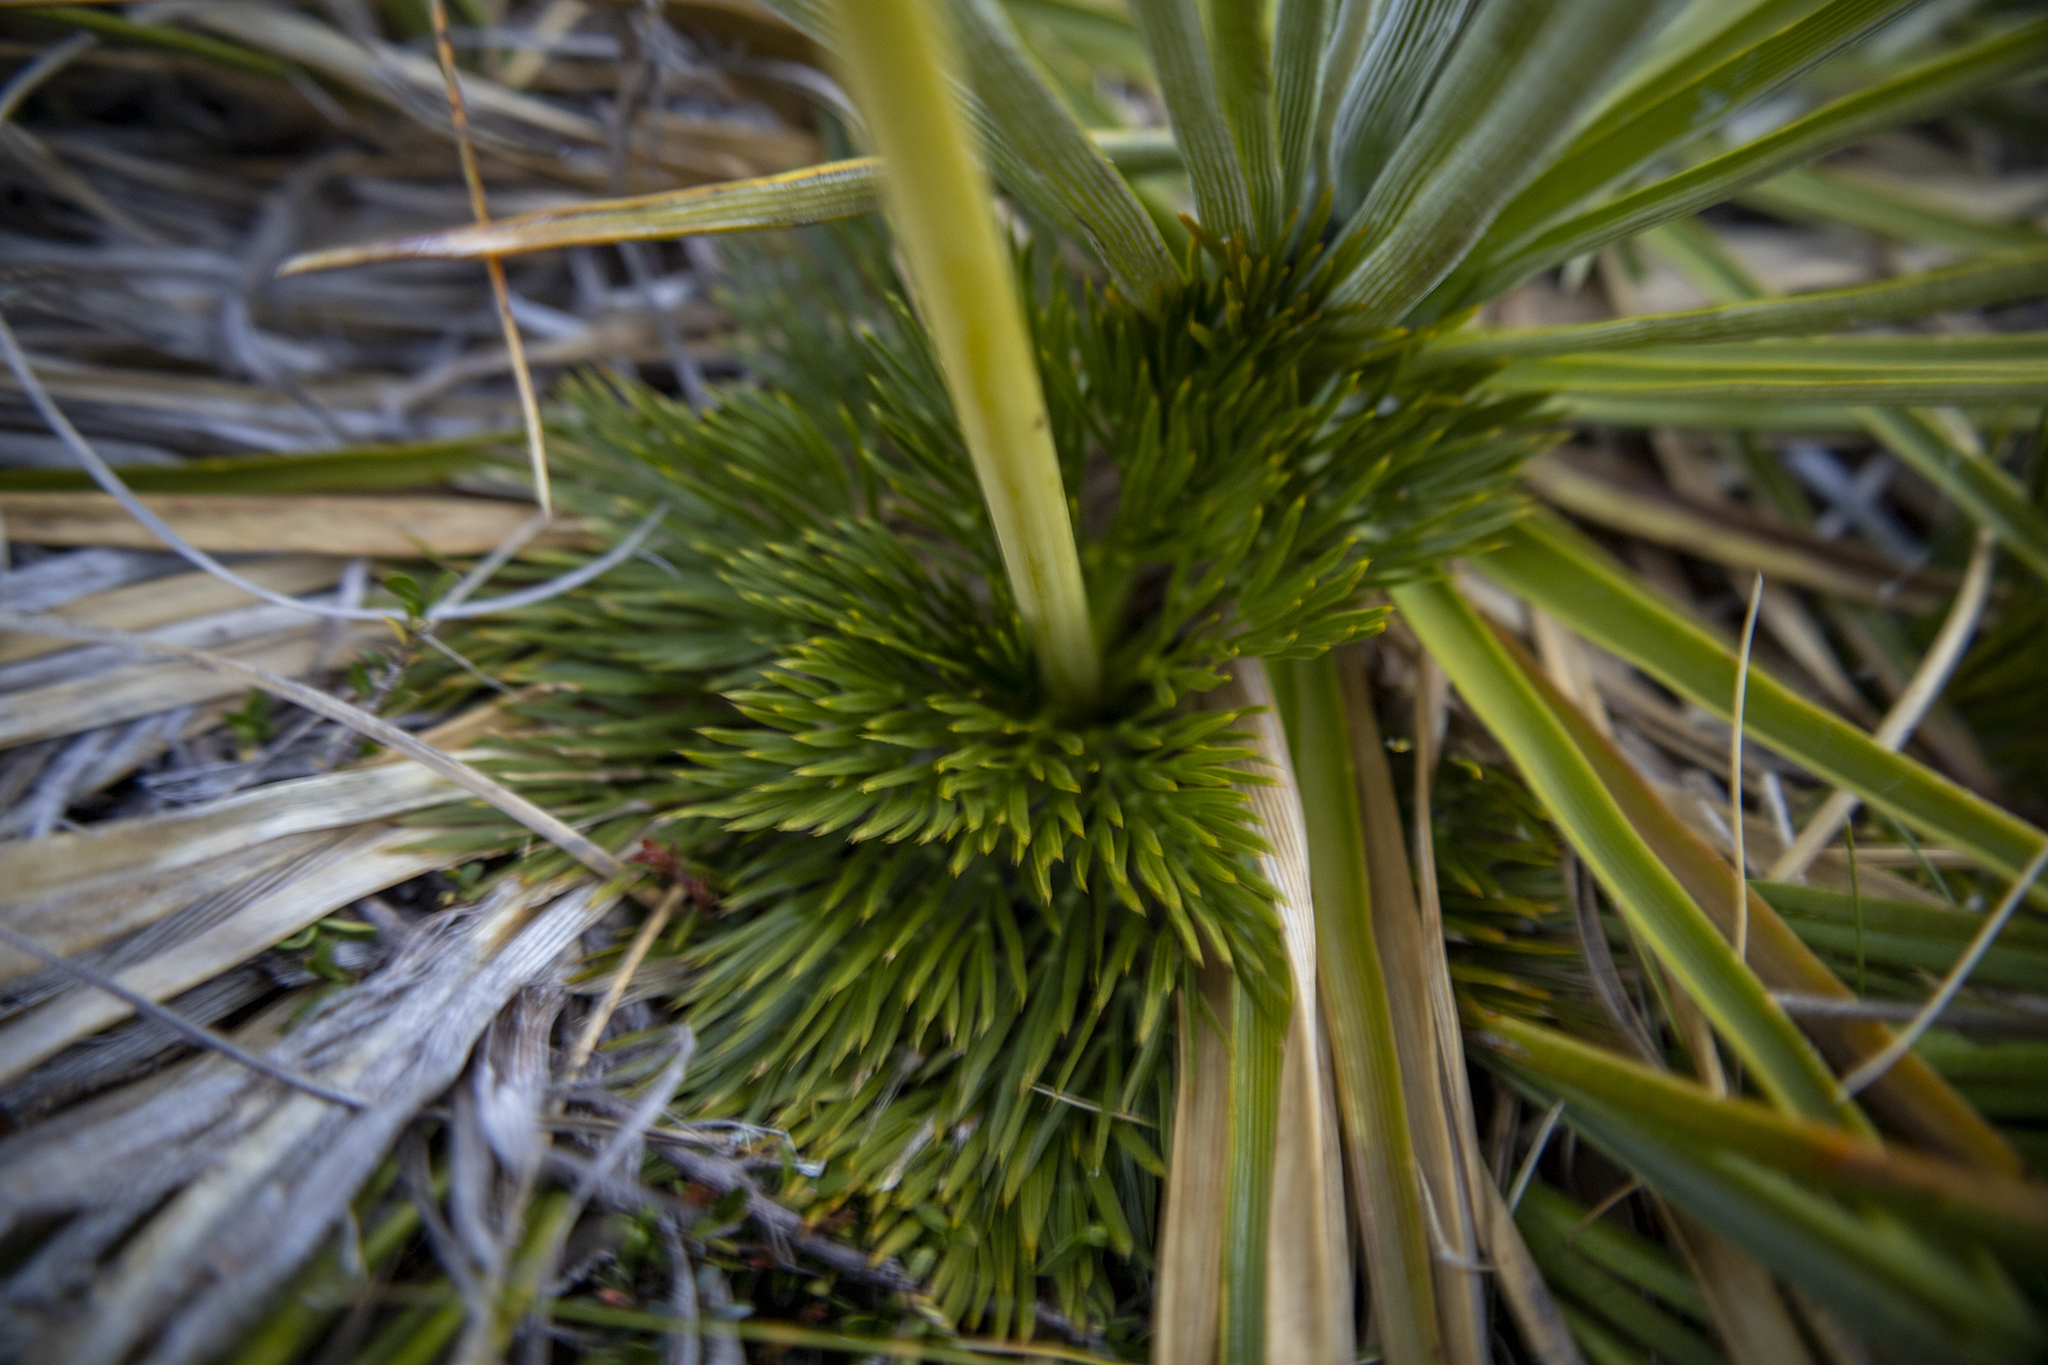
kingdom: Plantae
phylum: Tracheophyta
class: Magnoliopsida
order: Apiales
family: Apiaceae
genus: Aciphylla
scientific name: Aciphylla divisa
